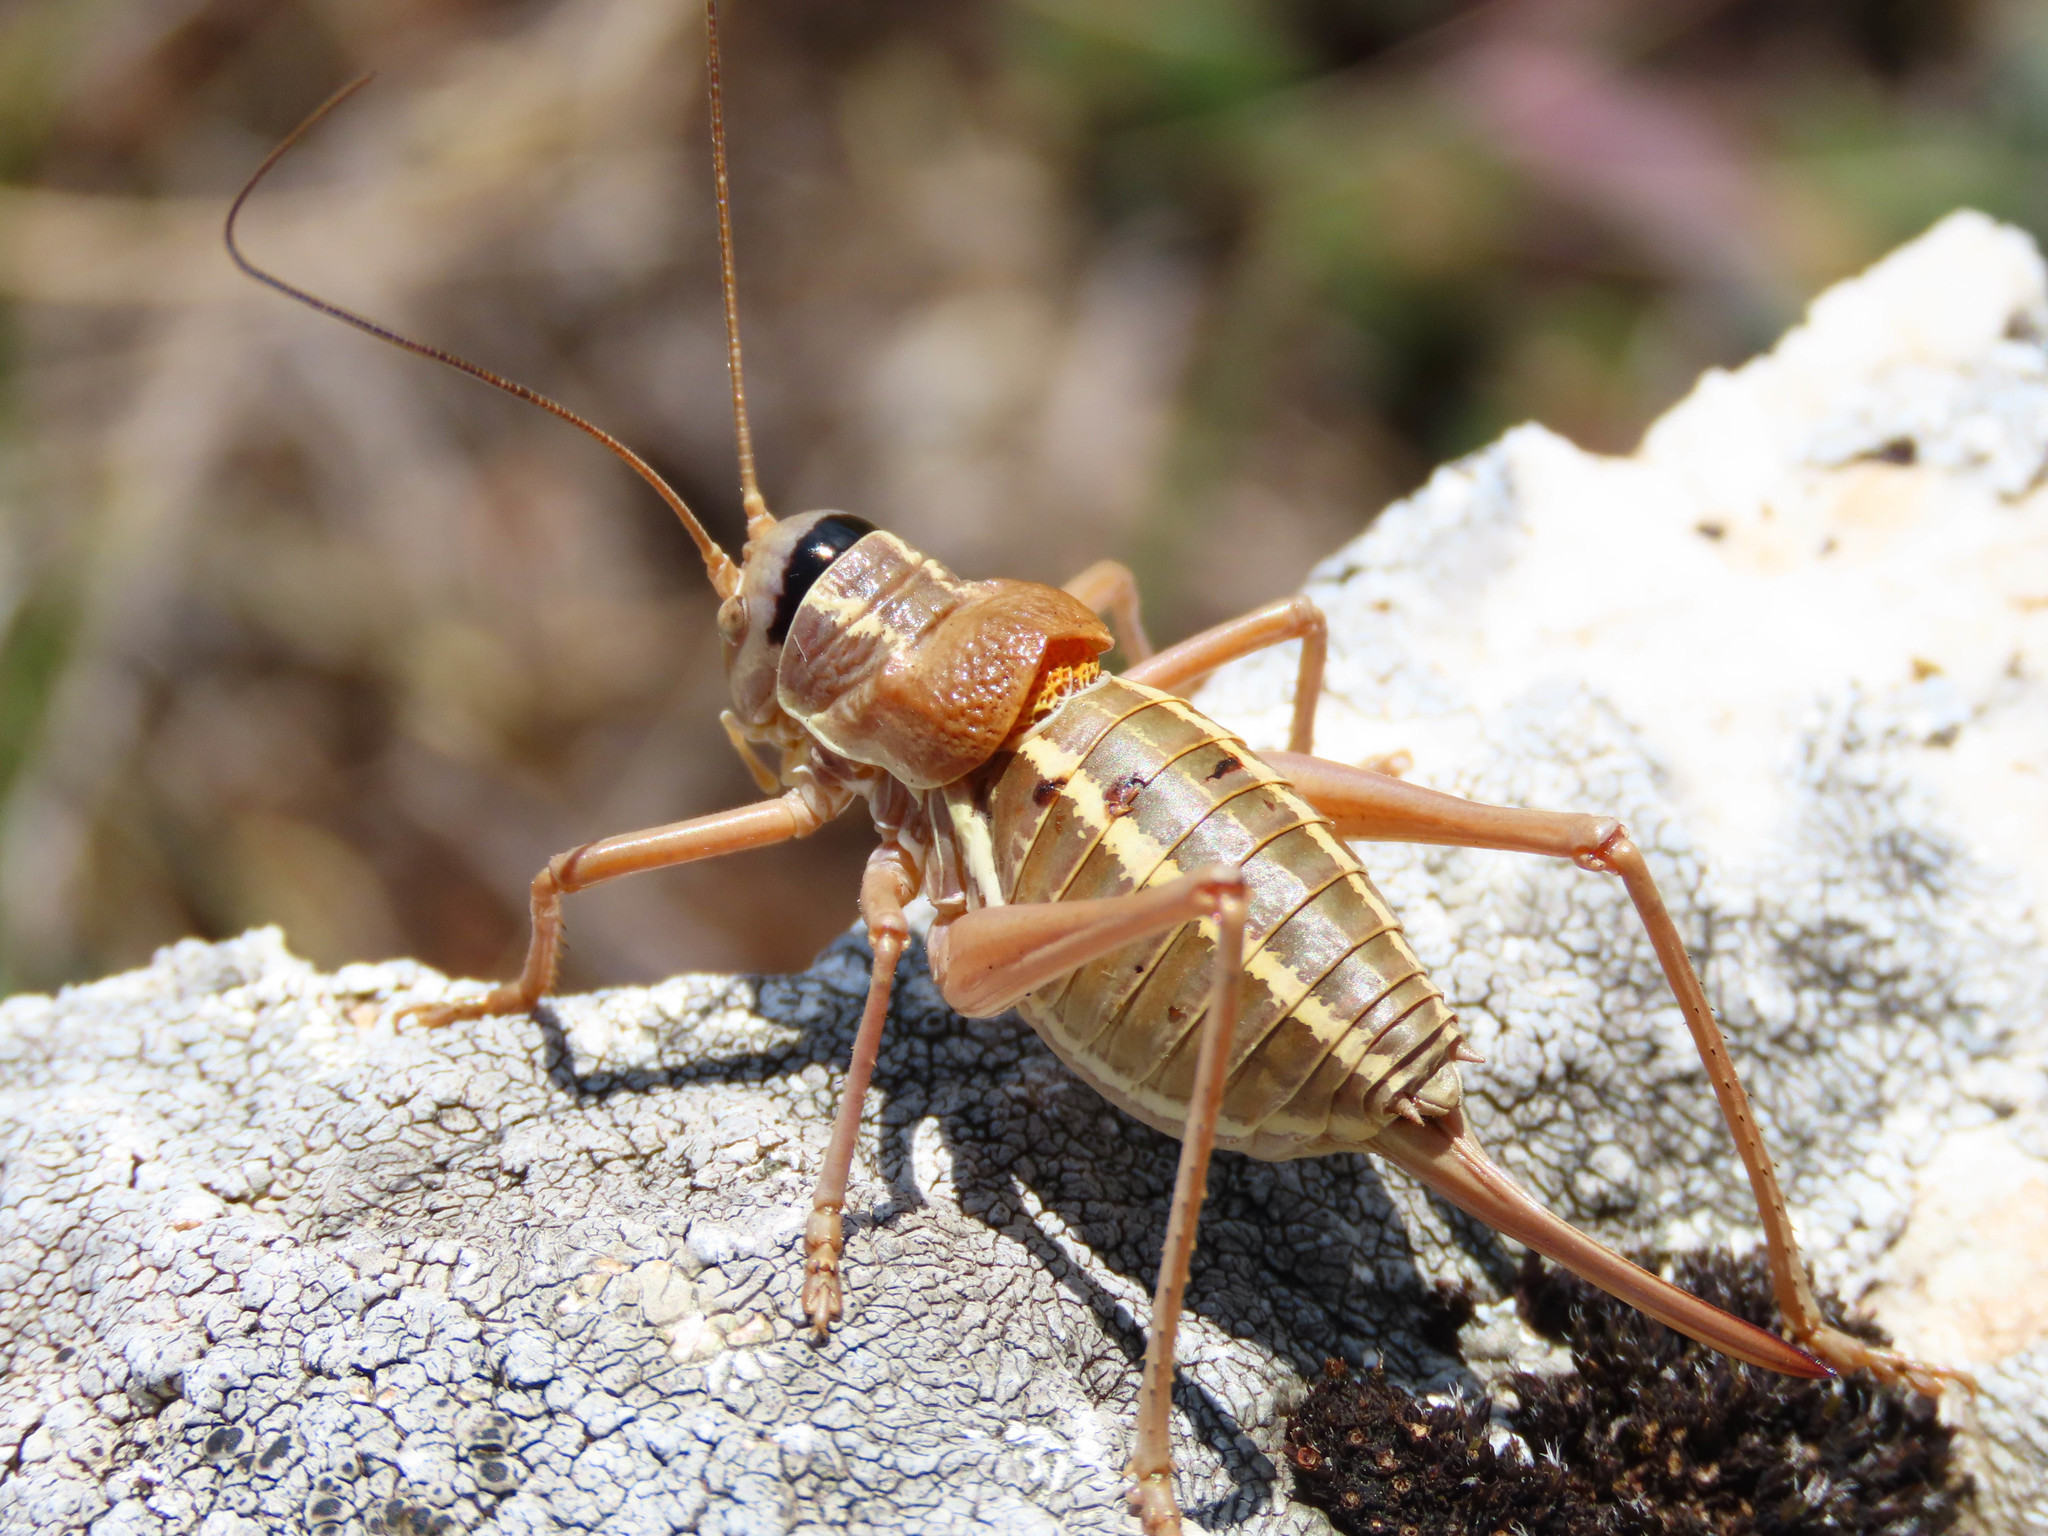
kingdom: Animalia
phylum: Arthropoda
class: Insecta
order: Orthoptera
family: Tettigoniidae
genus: Ephippiger
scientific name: Ephippiger ruffoi
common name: Pygmy saddle bush-cricket
